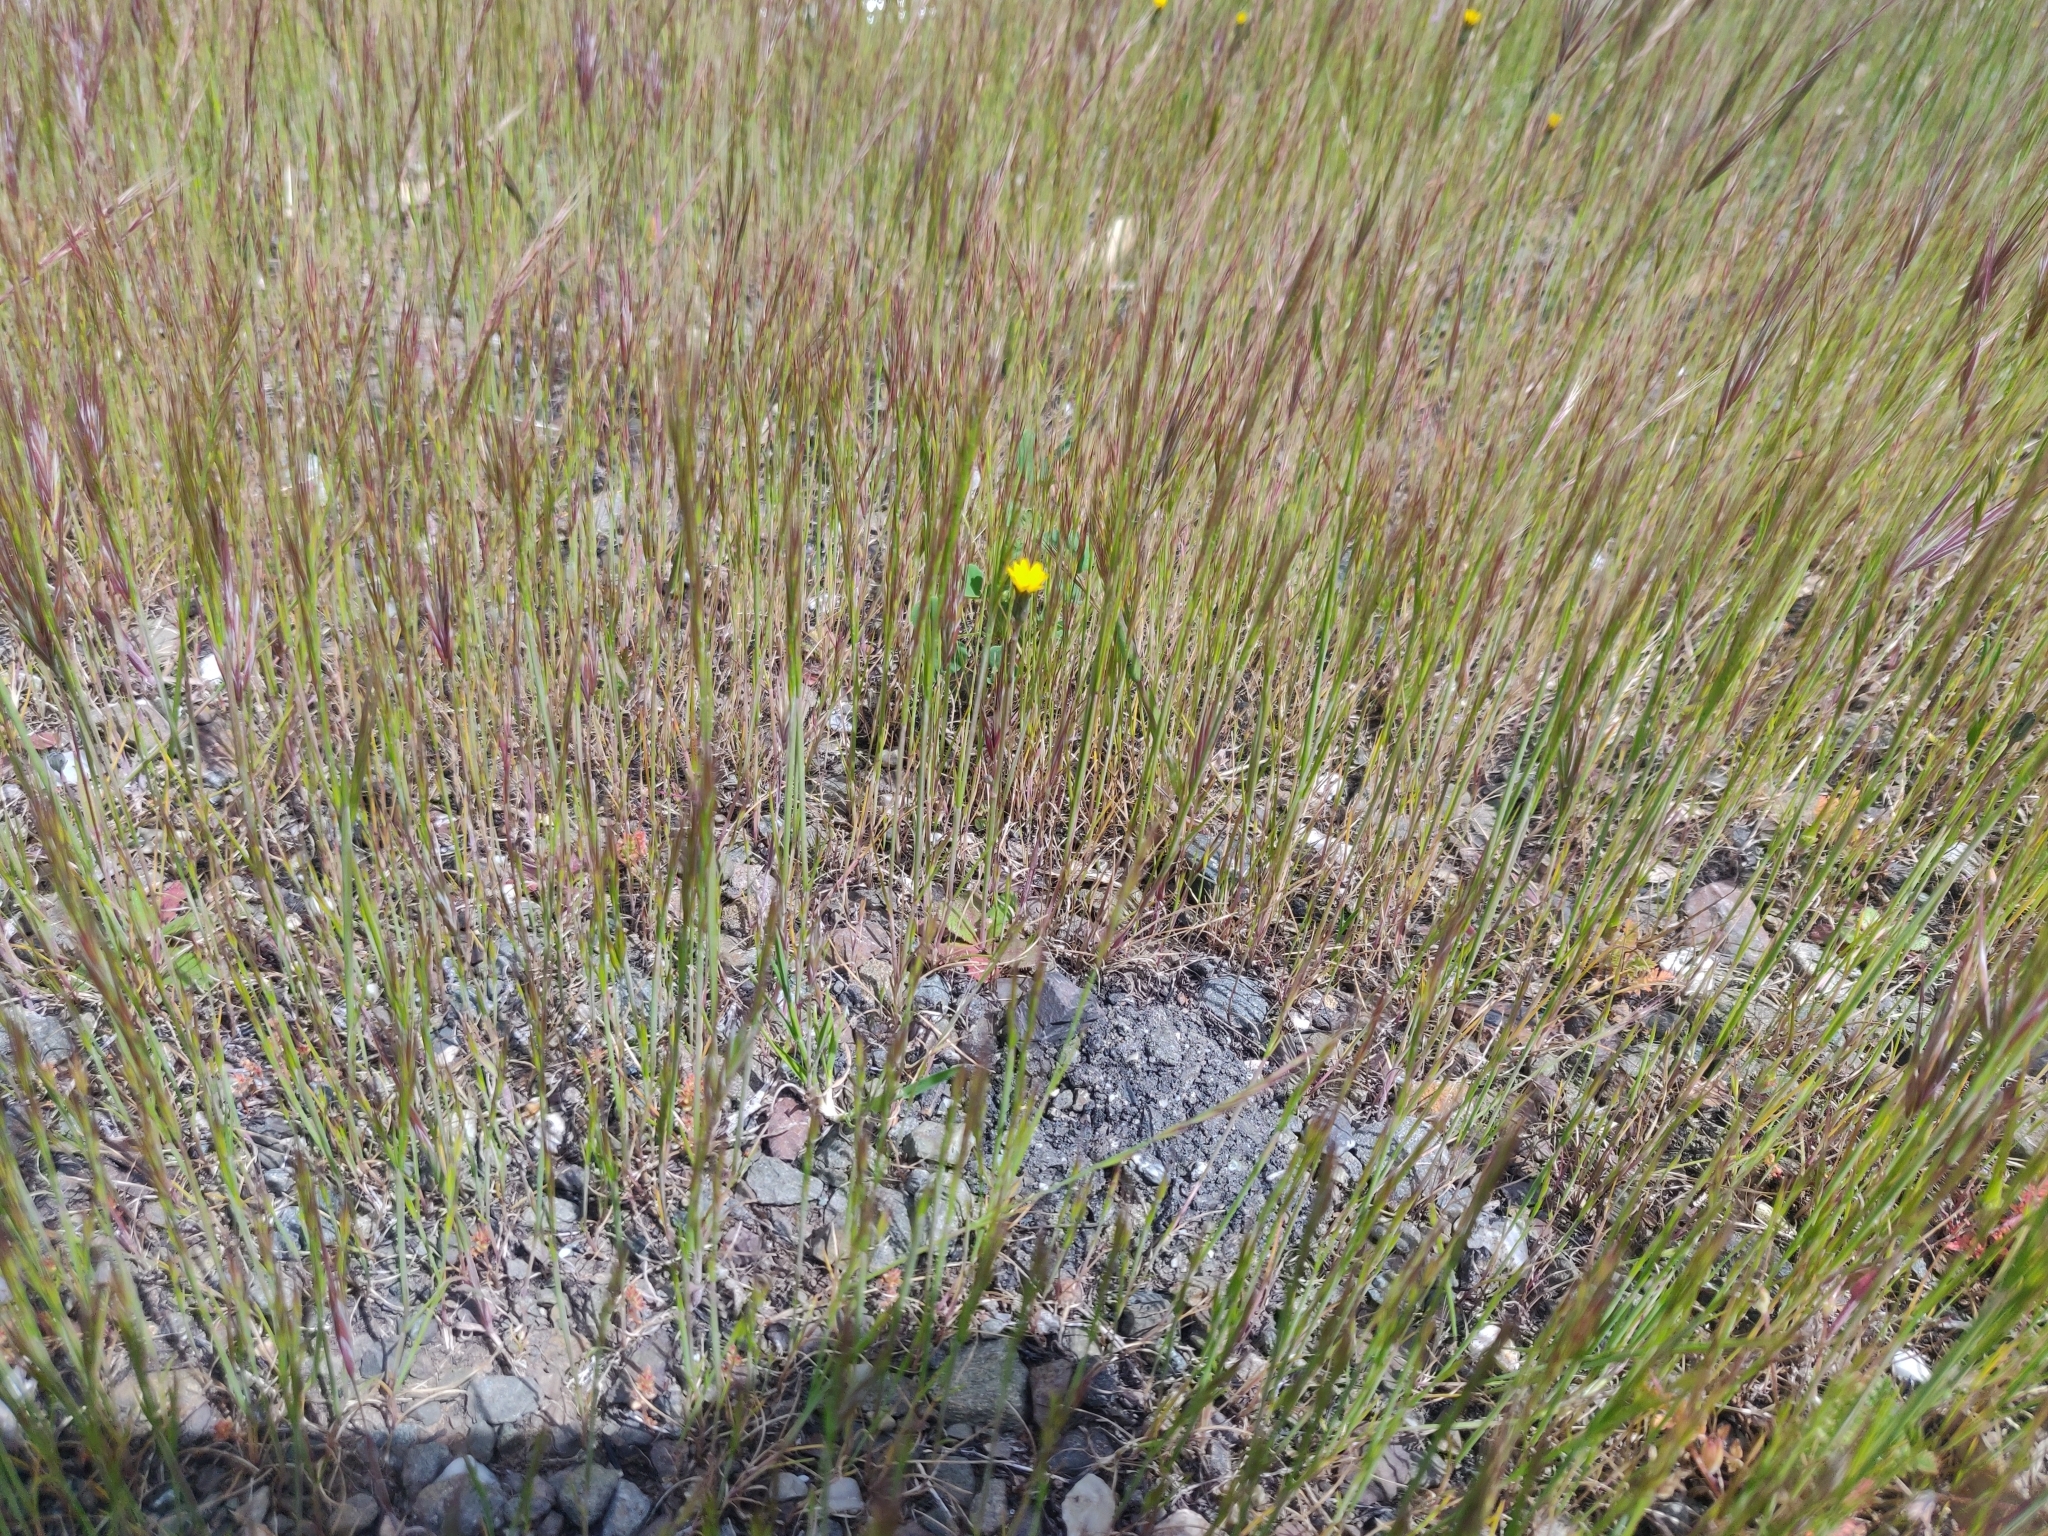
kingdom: Plantae
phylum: Tracheophyta
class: Magnoliopsida
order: Asterales
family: Asteraceae
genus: Hypochaeris
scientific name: Hypochaeris glabra
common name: Smooth catsear
